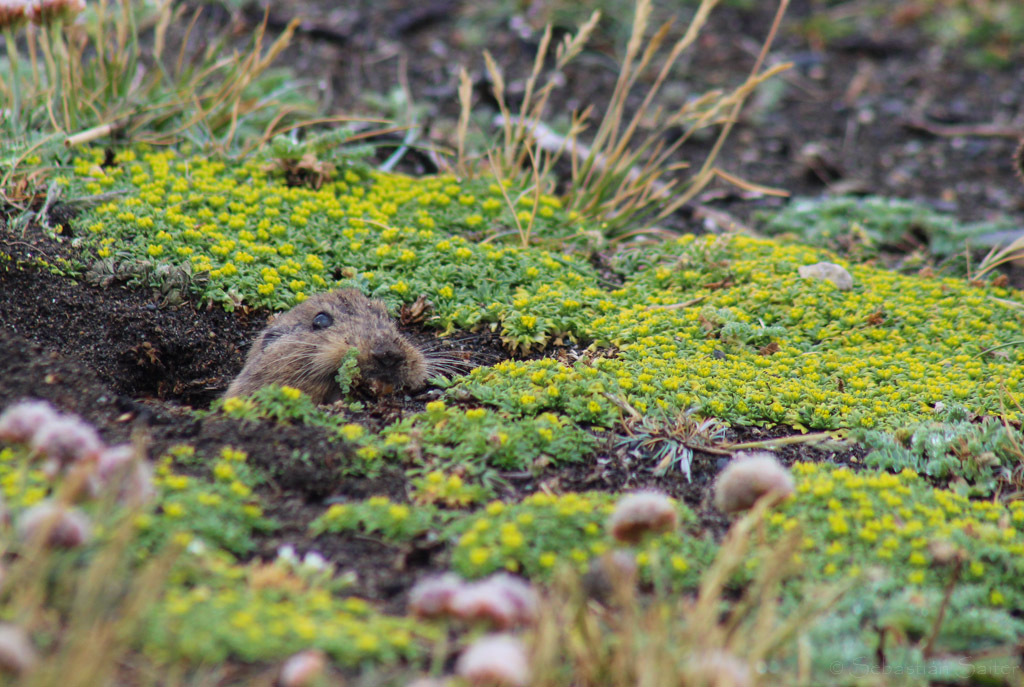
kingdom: Animalia
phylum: Chordata
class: Mammalia
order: Rodentia
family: Ctenomyidae
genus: Ctenomys
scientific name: Ctenomys magellanicus
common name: Magellanic tuco-tuco
